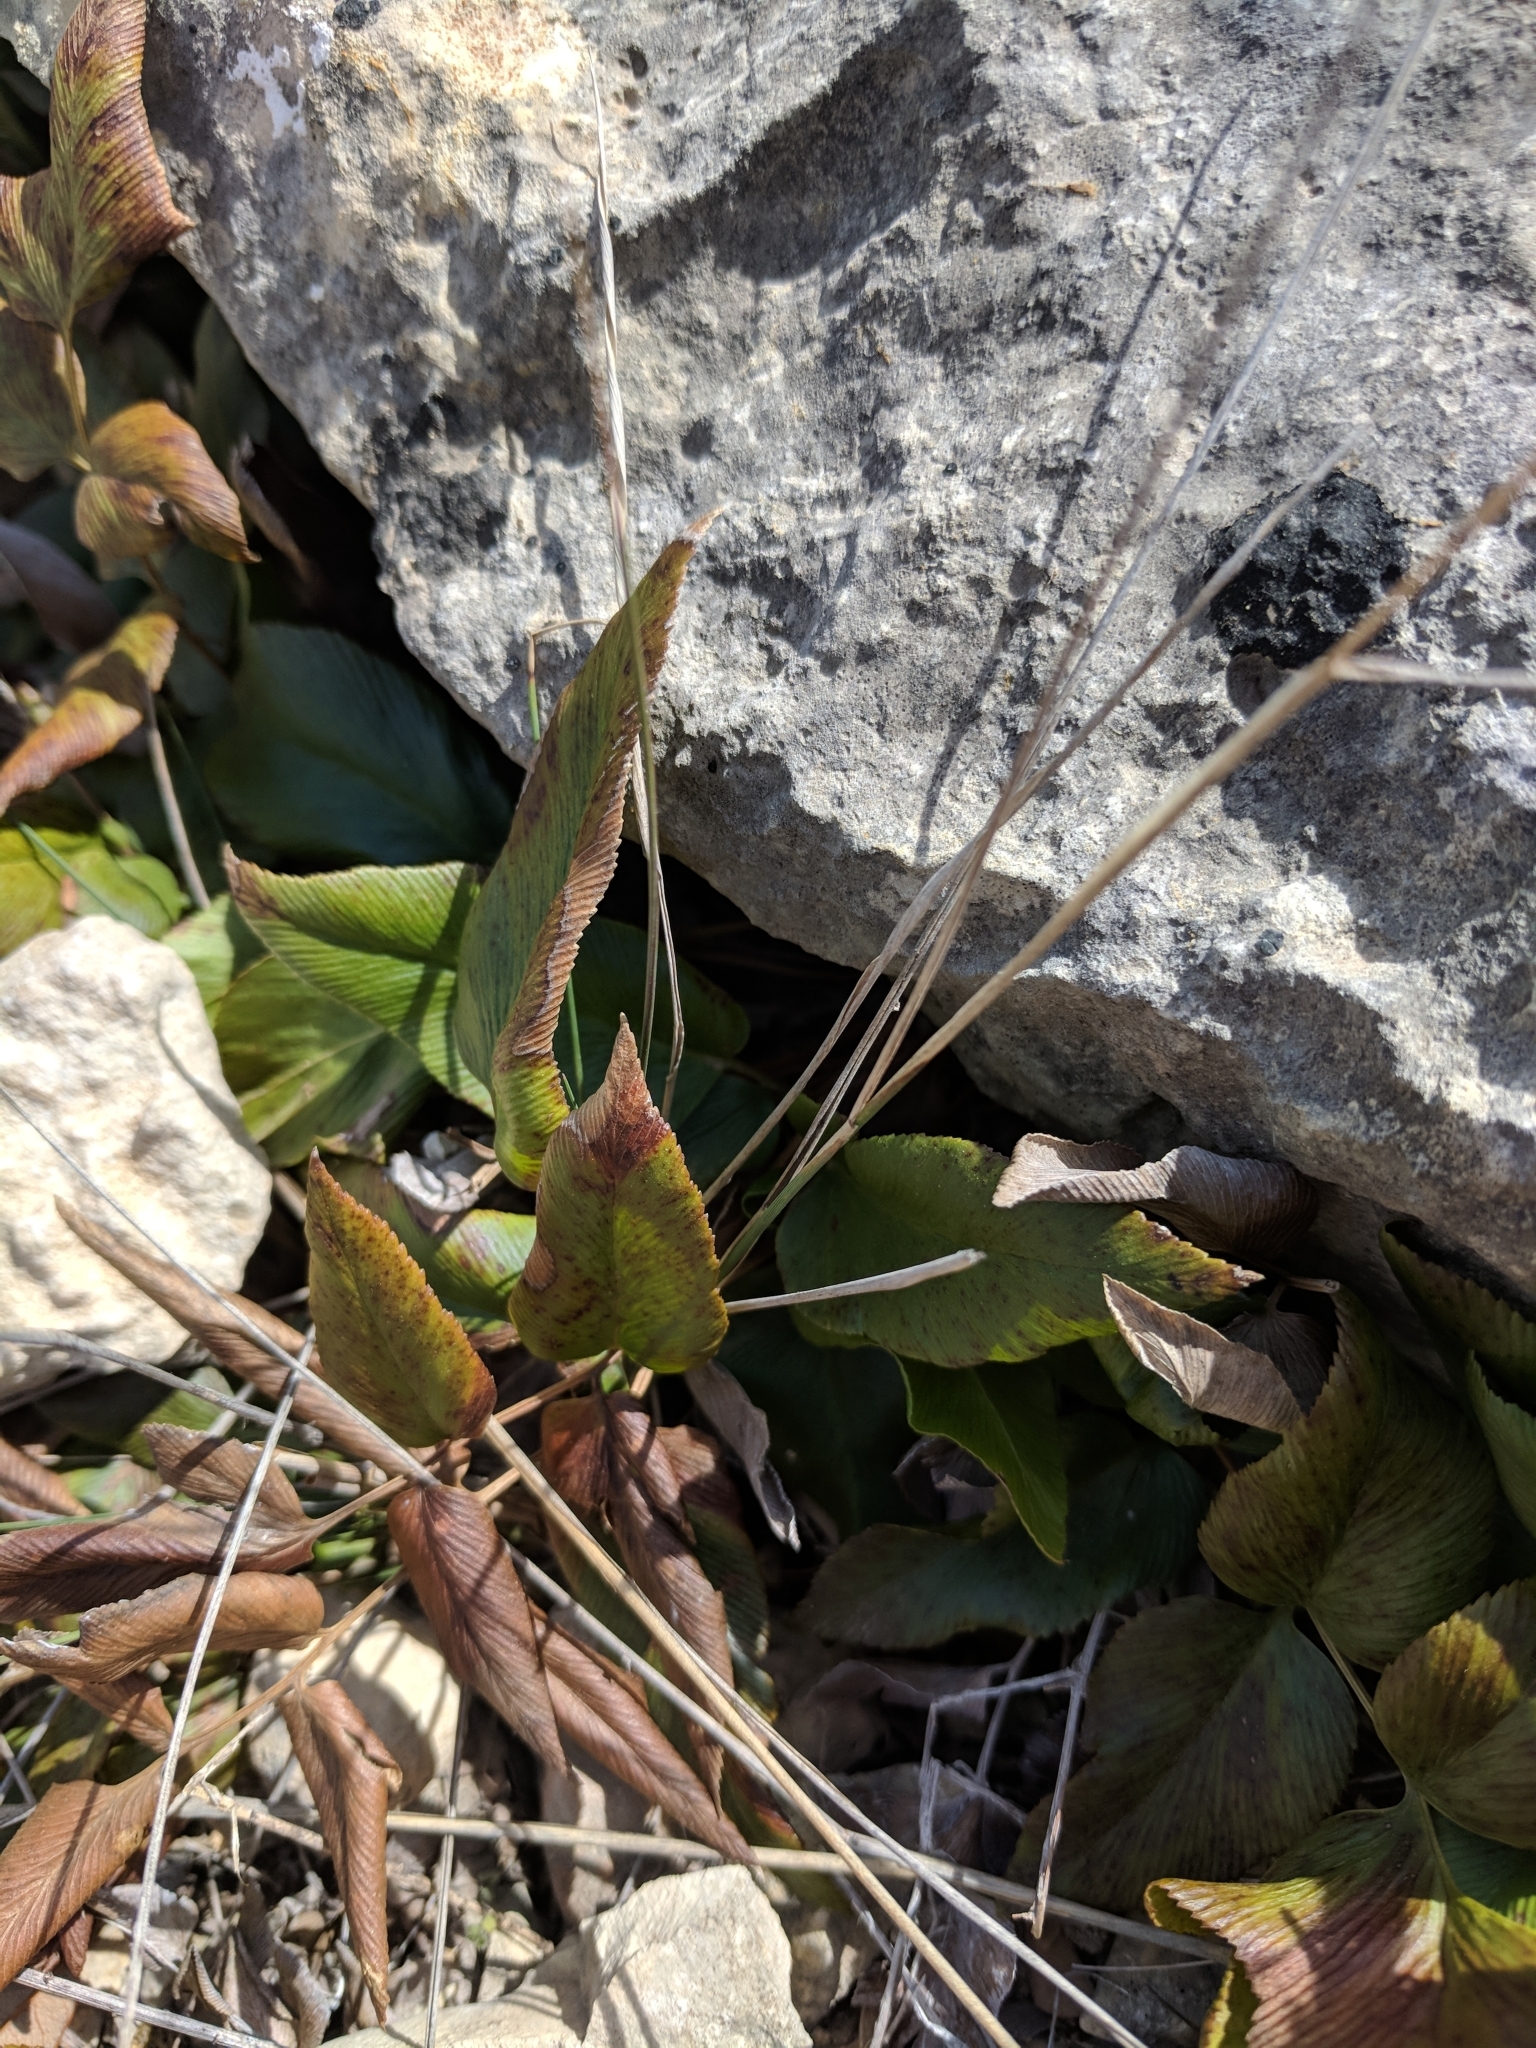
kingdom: Plantae
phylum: Tracheophyta
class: Polypodiopsida
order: Schizaeales
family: Anemiaceae
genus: Anemia
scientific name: Anemia mexicana
